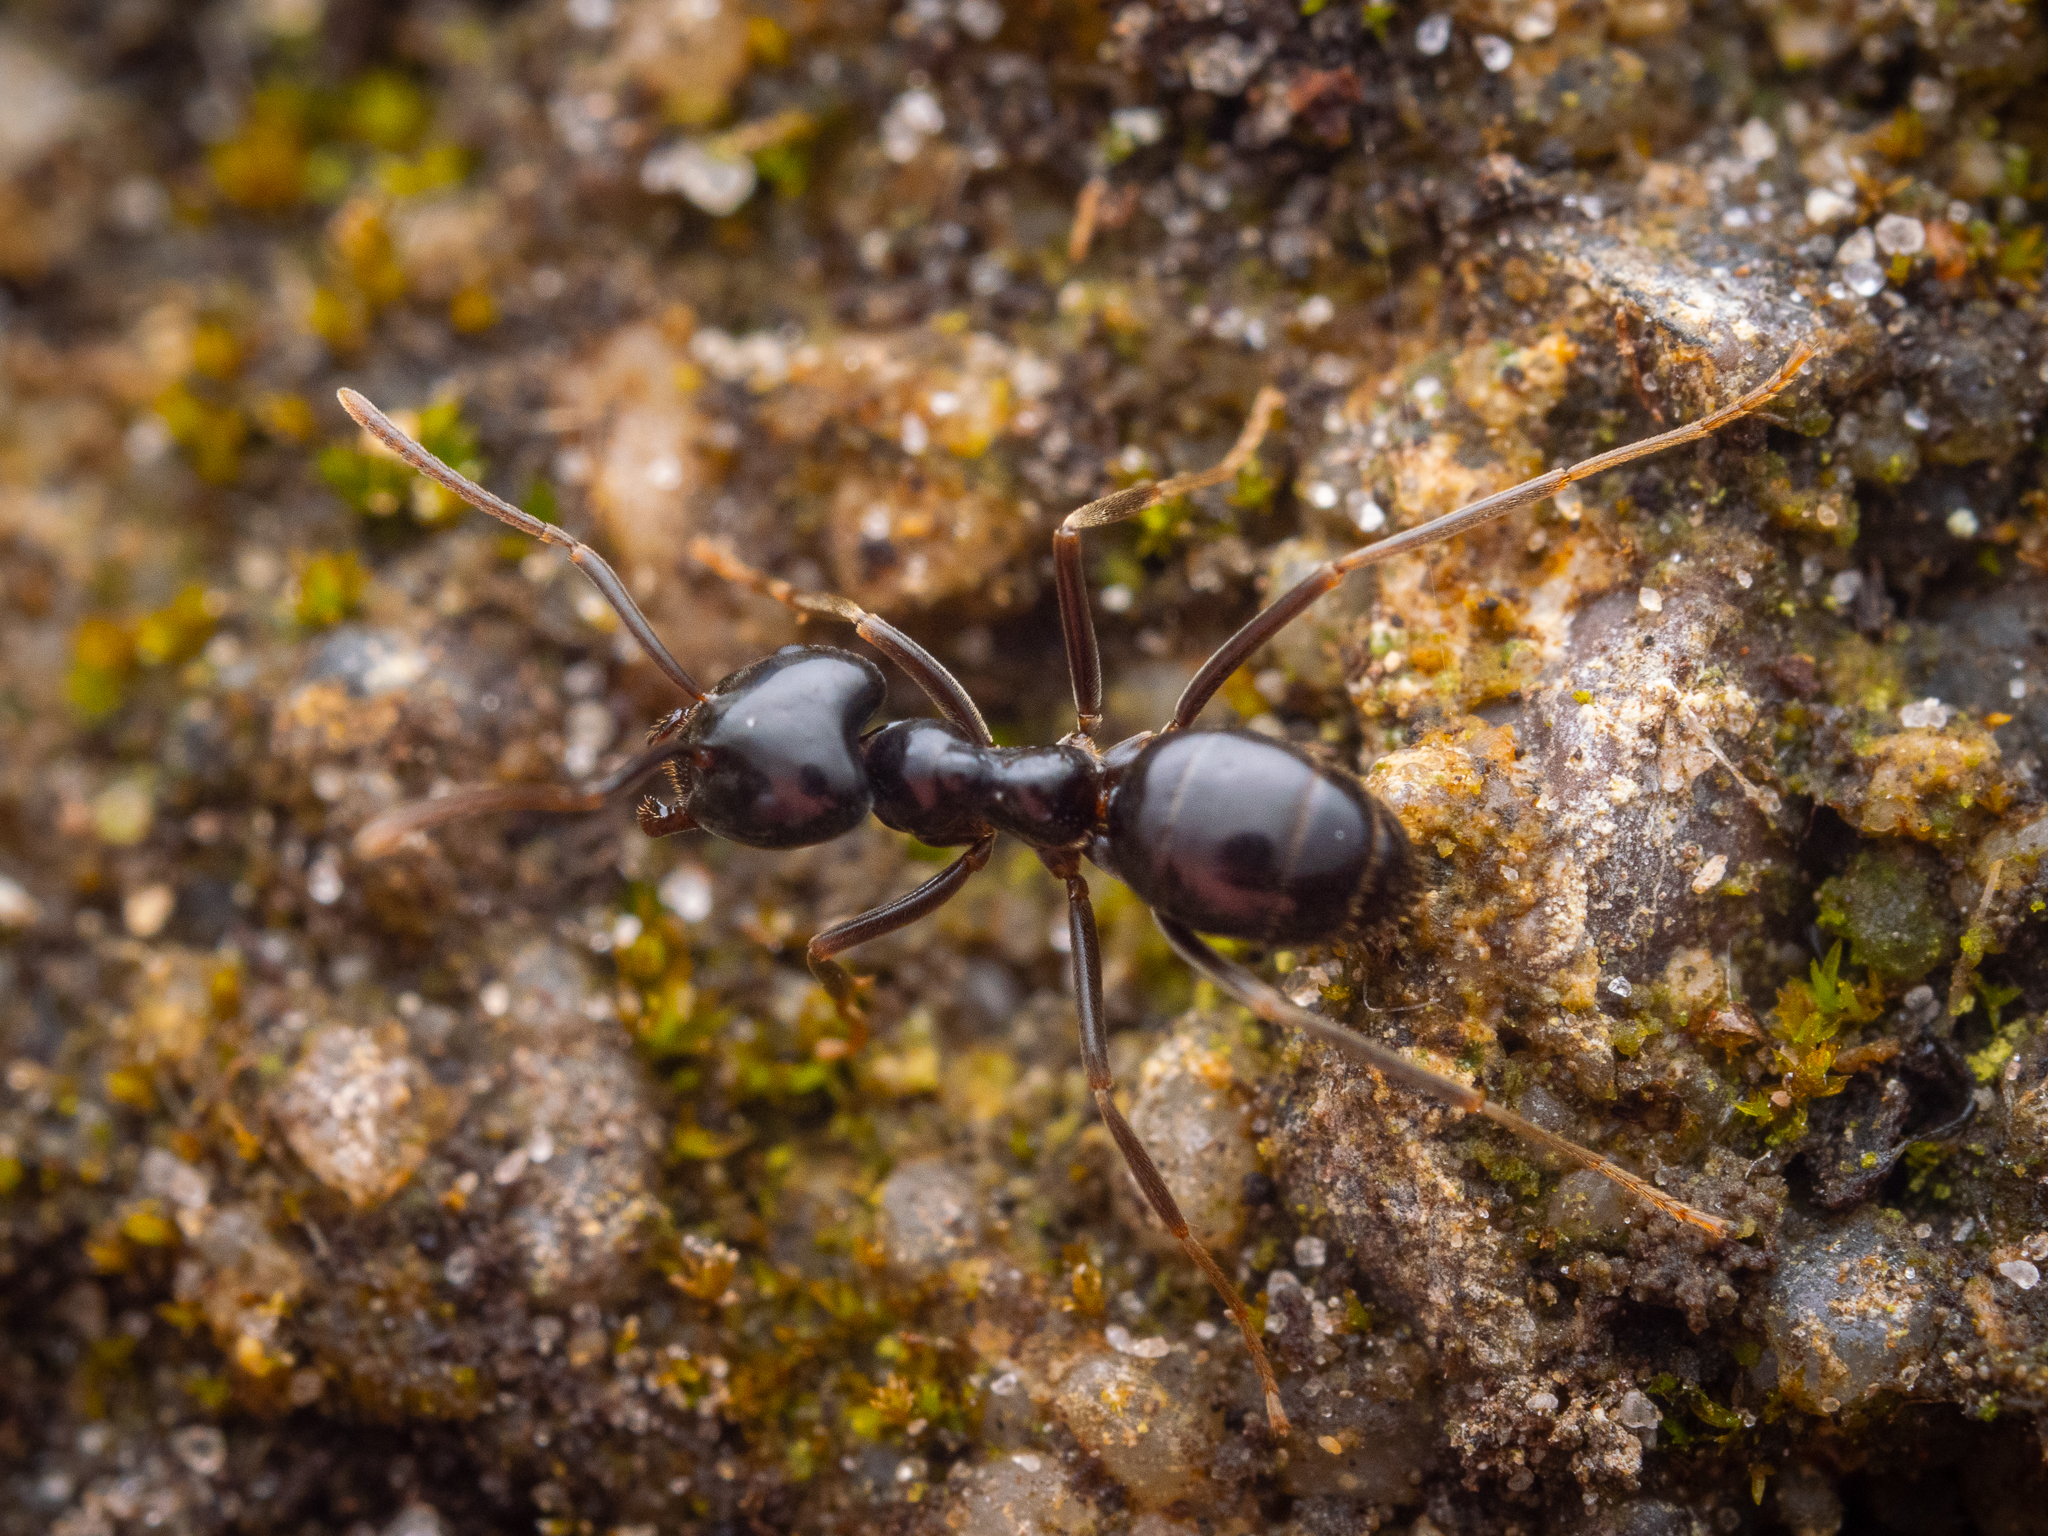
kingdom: Animalia
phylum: Arthropoda
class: Insecta
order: Hymenoptera
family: Formicidae
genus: Lasius
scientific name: Lasius fuliginosus
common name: Jet ant
